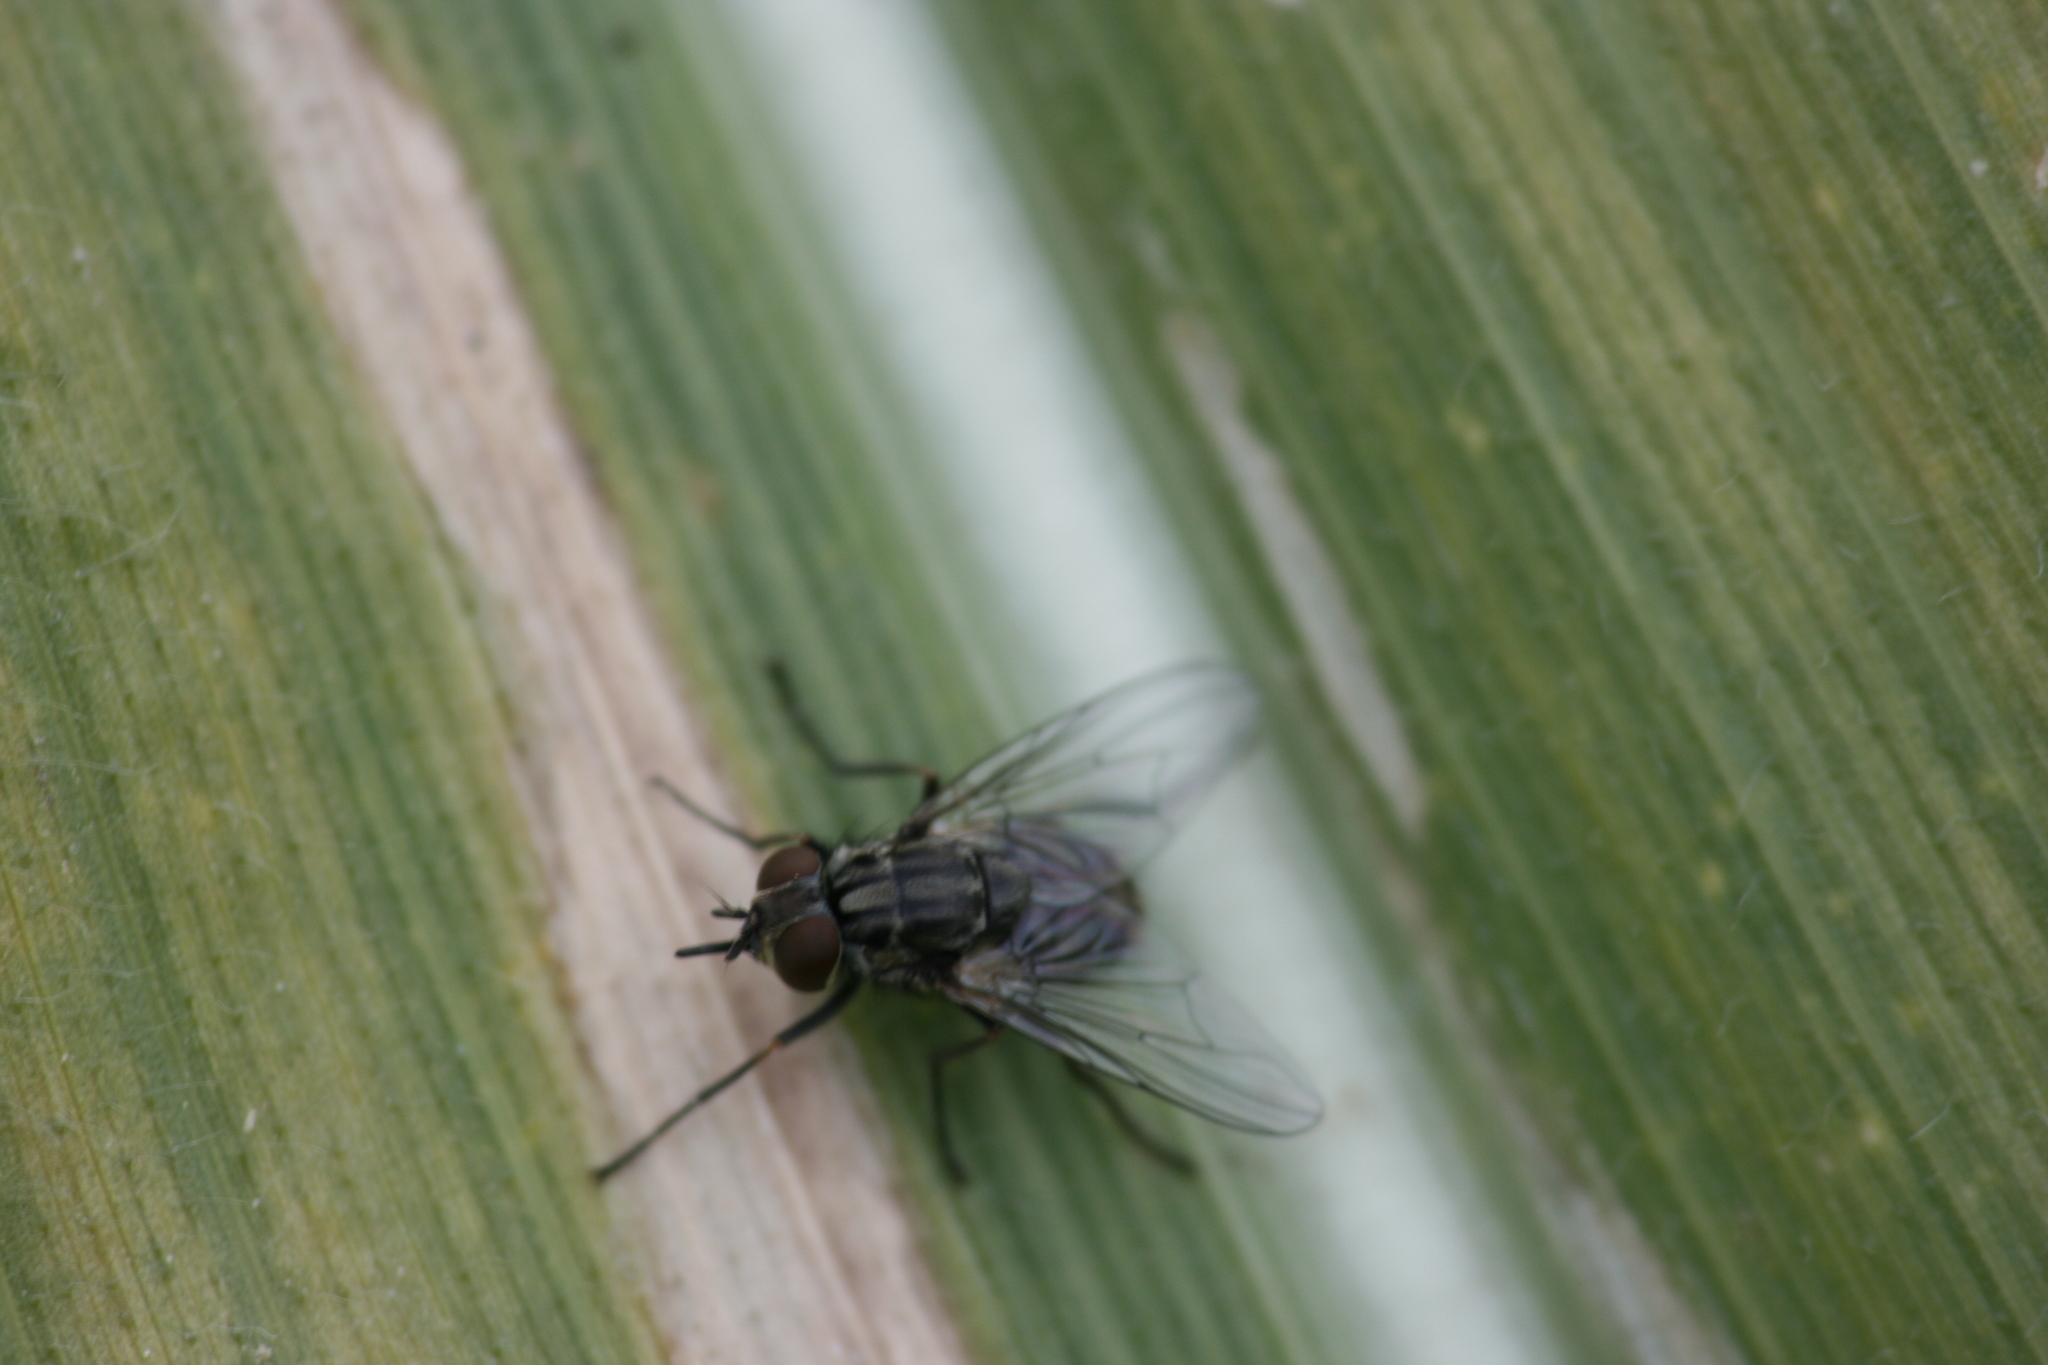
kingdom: Animalia
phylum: Arthropoda
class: Insecta
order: Diptera
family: Muscidae
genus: Stomoxys
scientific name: Stomoxys calcitrans
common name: Stable fly
